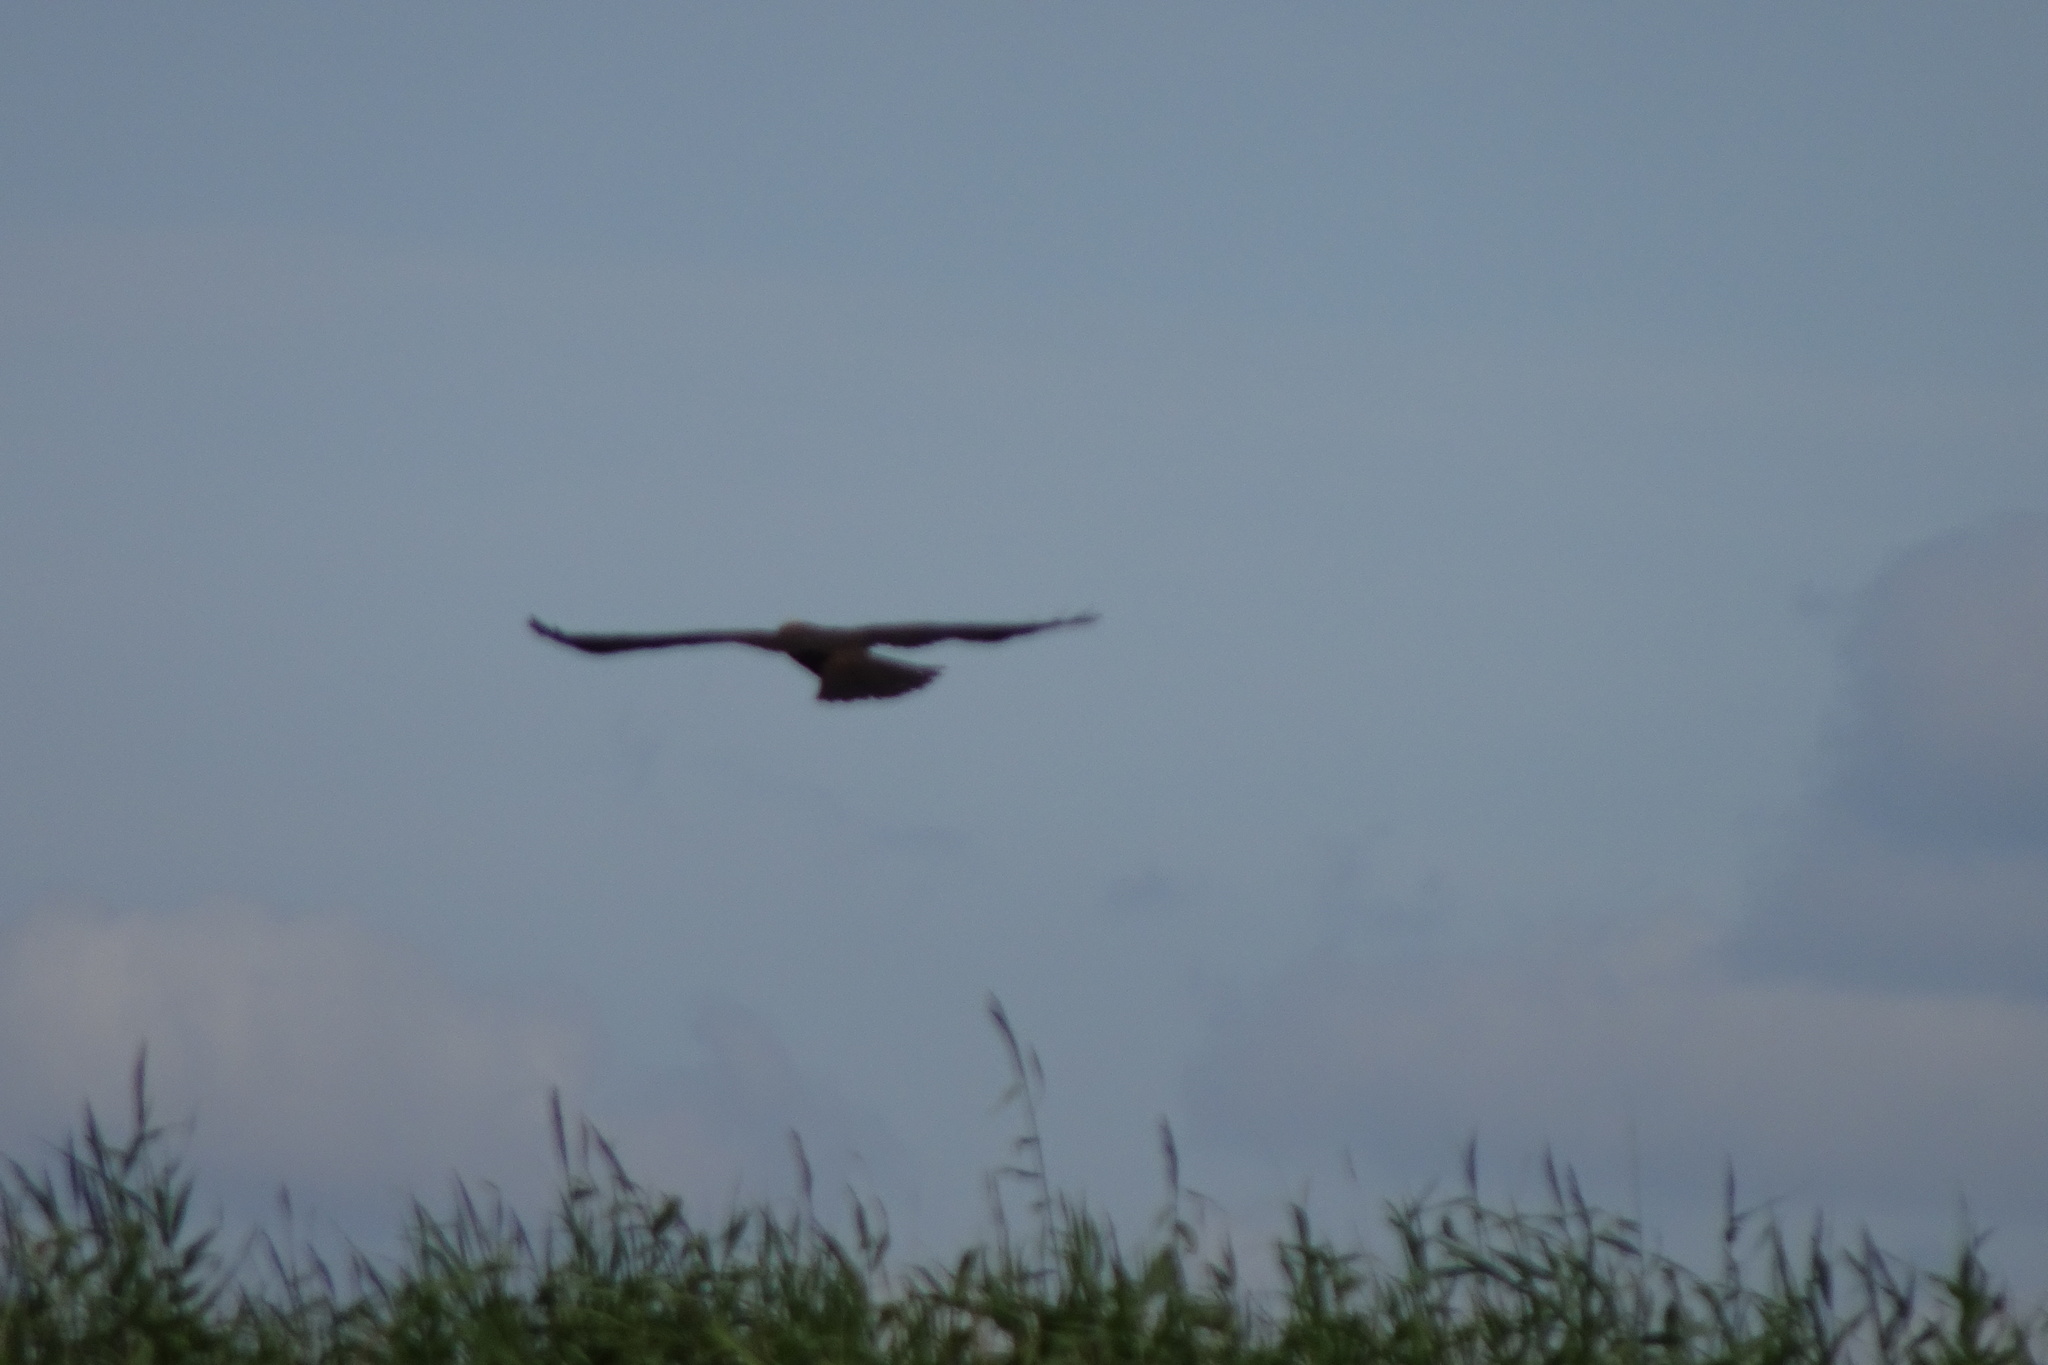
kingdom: Animalia
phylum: Chordata
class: Aves
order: Accipitriformes
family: Accipitridae
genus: Circus
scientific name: Circus aeruginosus
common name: Western marsh harrier
